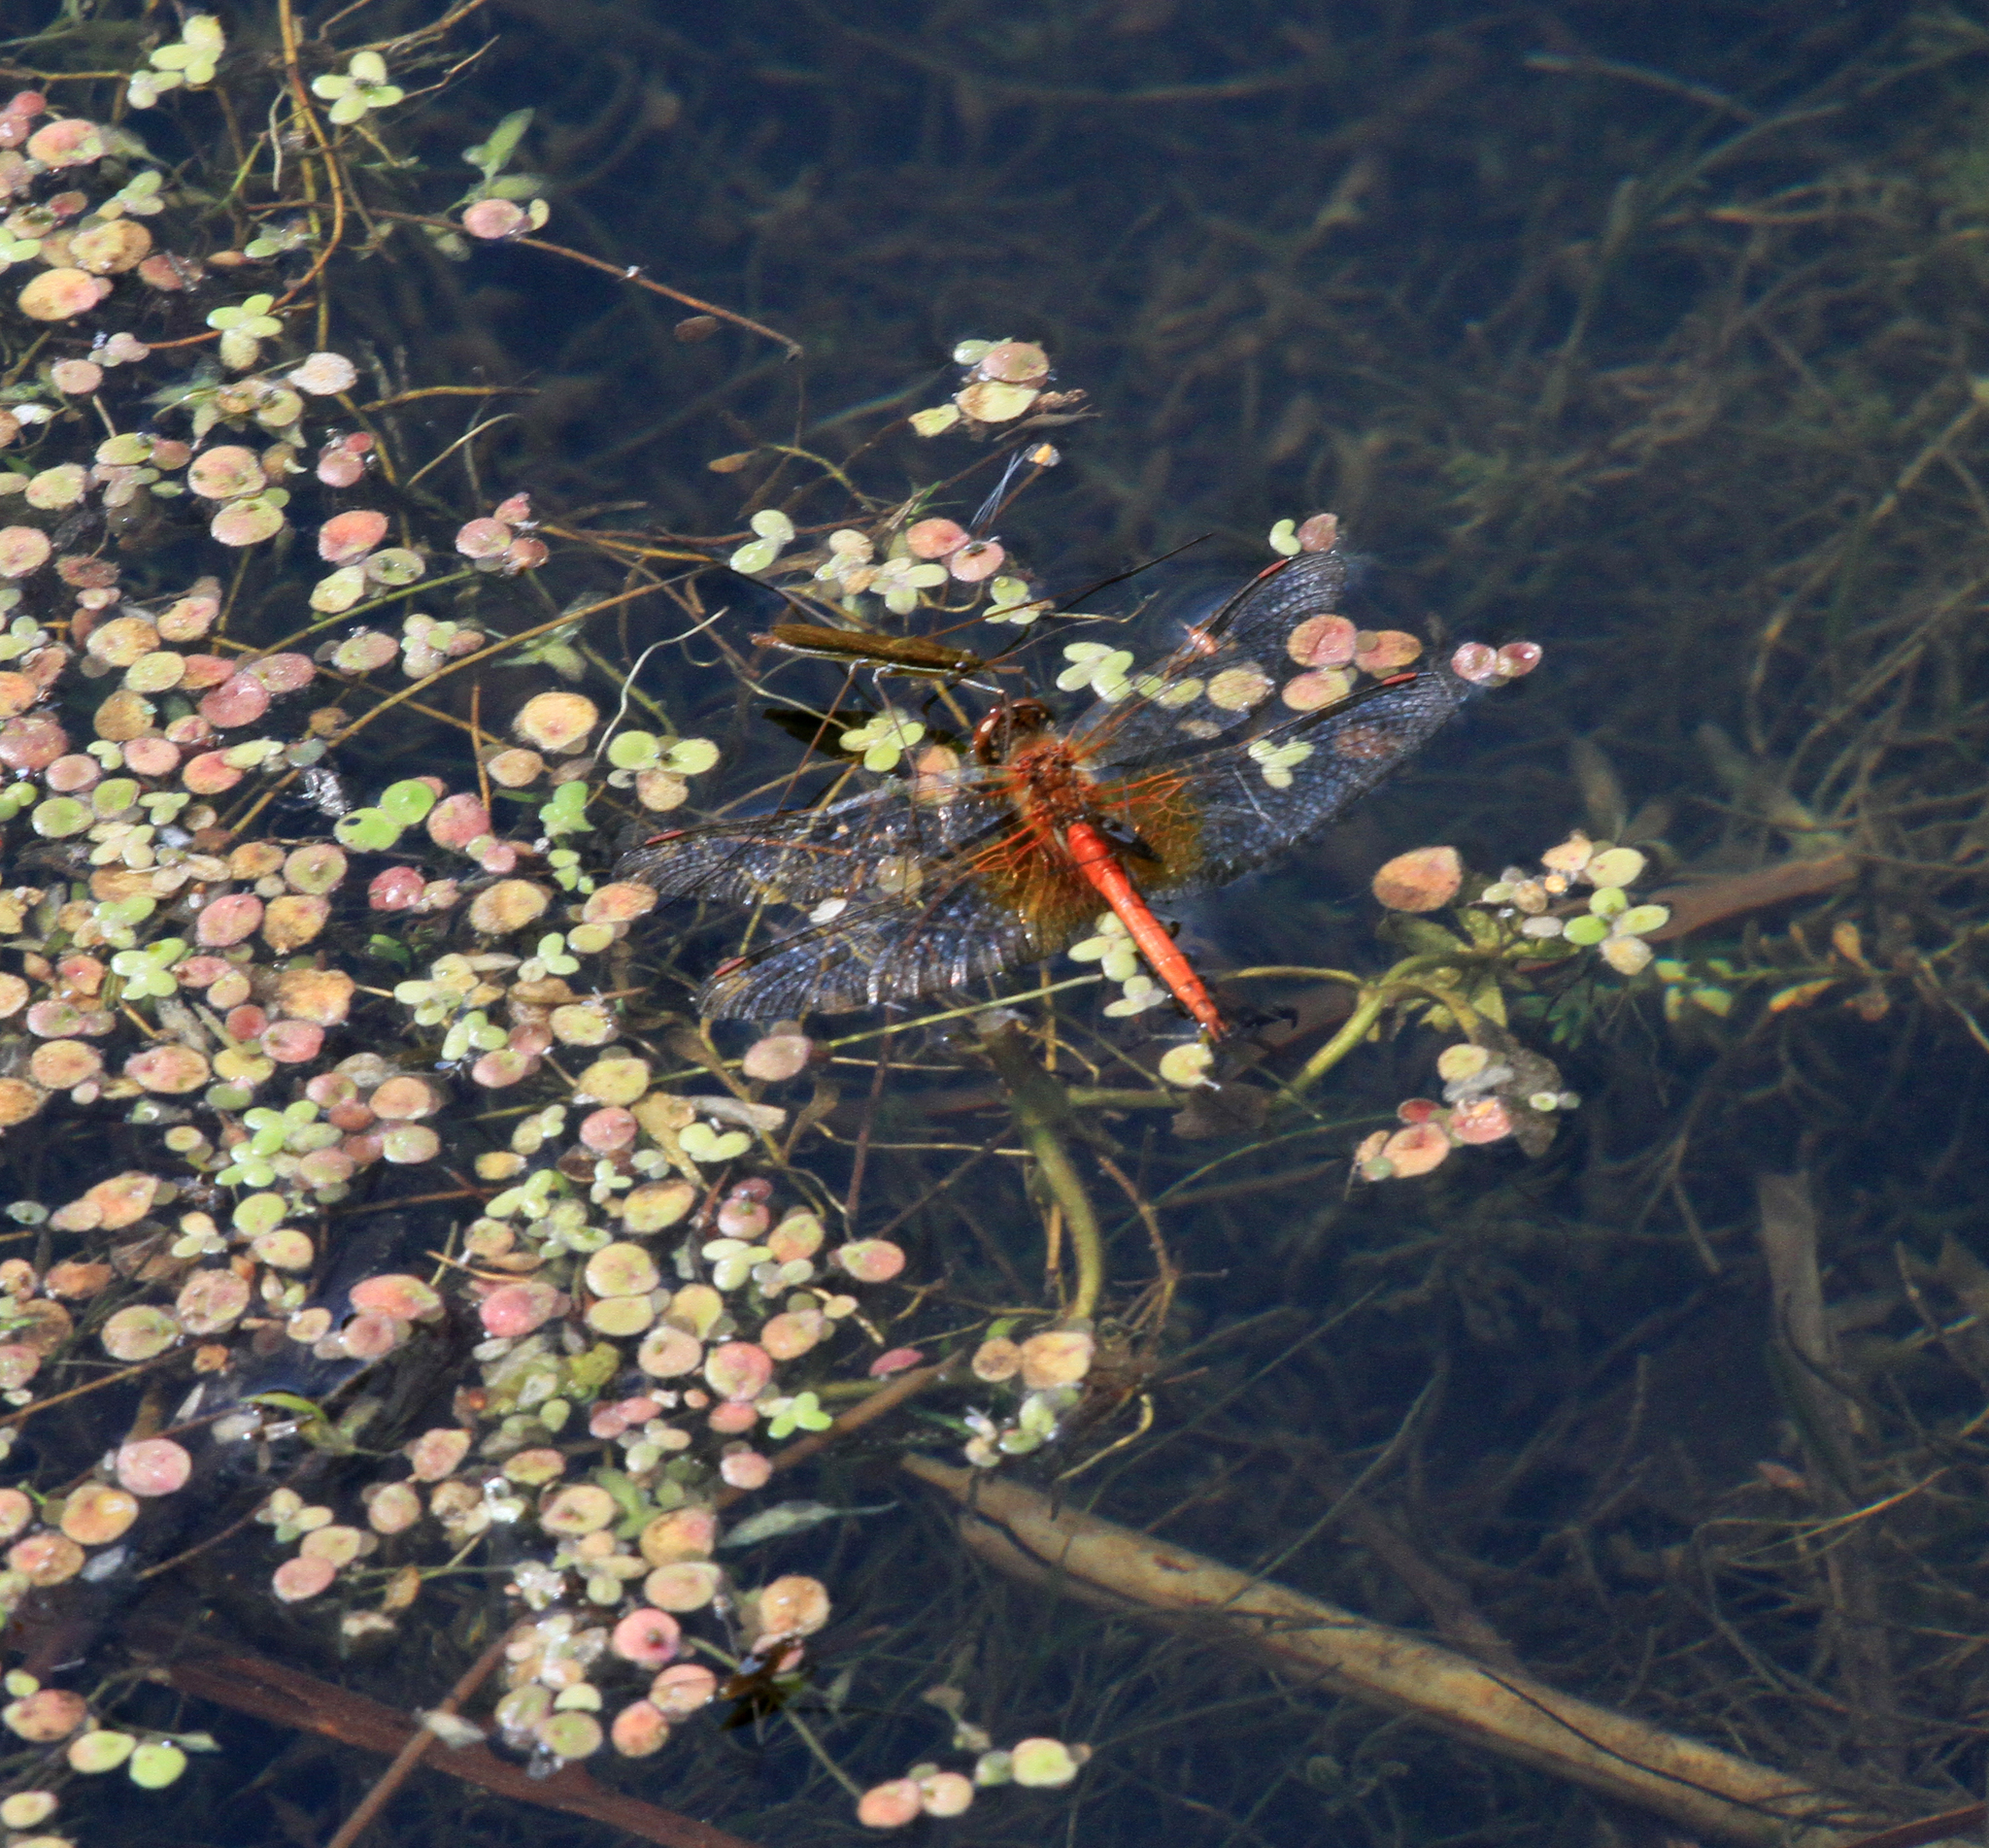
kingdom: Animalia
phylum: Arthropoda
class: Insecta
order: Odonata
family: Libellulidae
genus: Sympetrum
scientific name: Sympetrum flaveolum
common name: Yellow-winged darter
